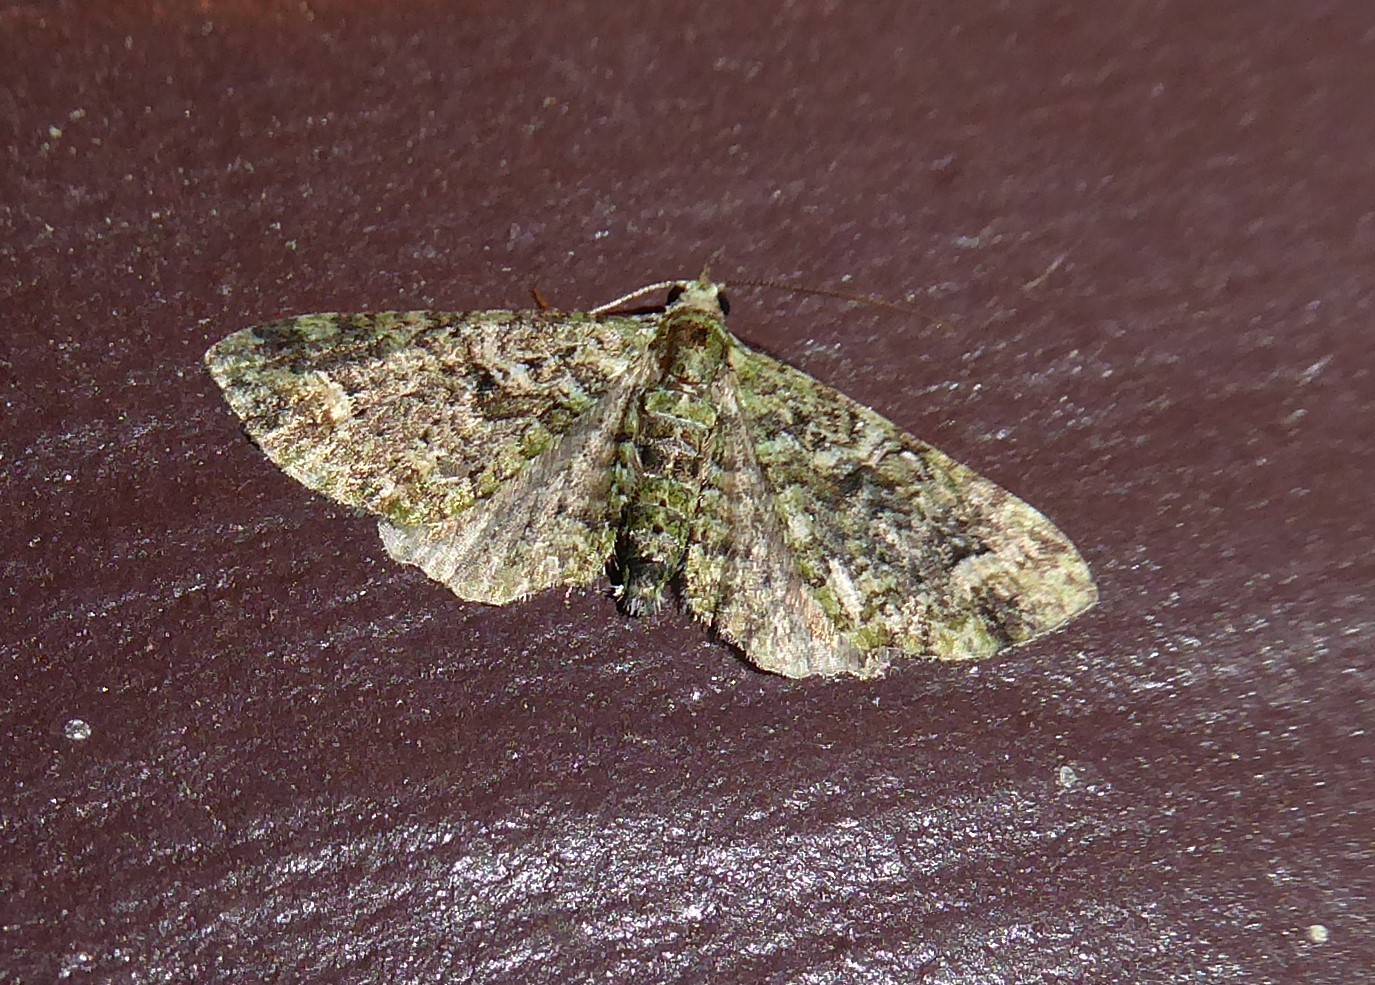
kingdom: Animalia
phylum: Arthropoda
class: Insecta
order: Lepidoptera
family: Geometridae
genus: Idaea
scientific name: Idaea mutanda
